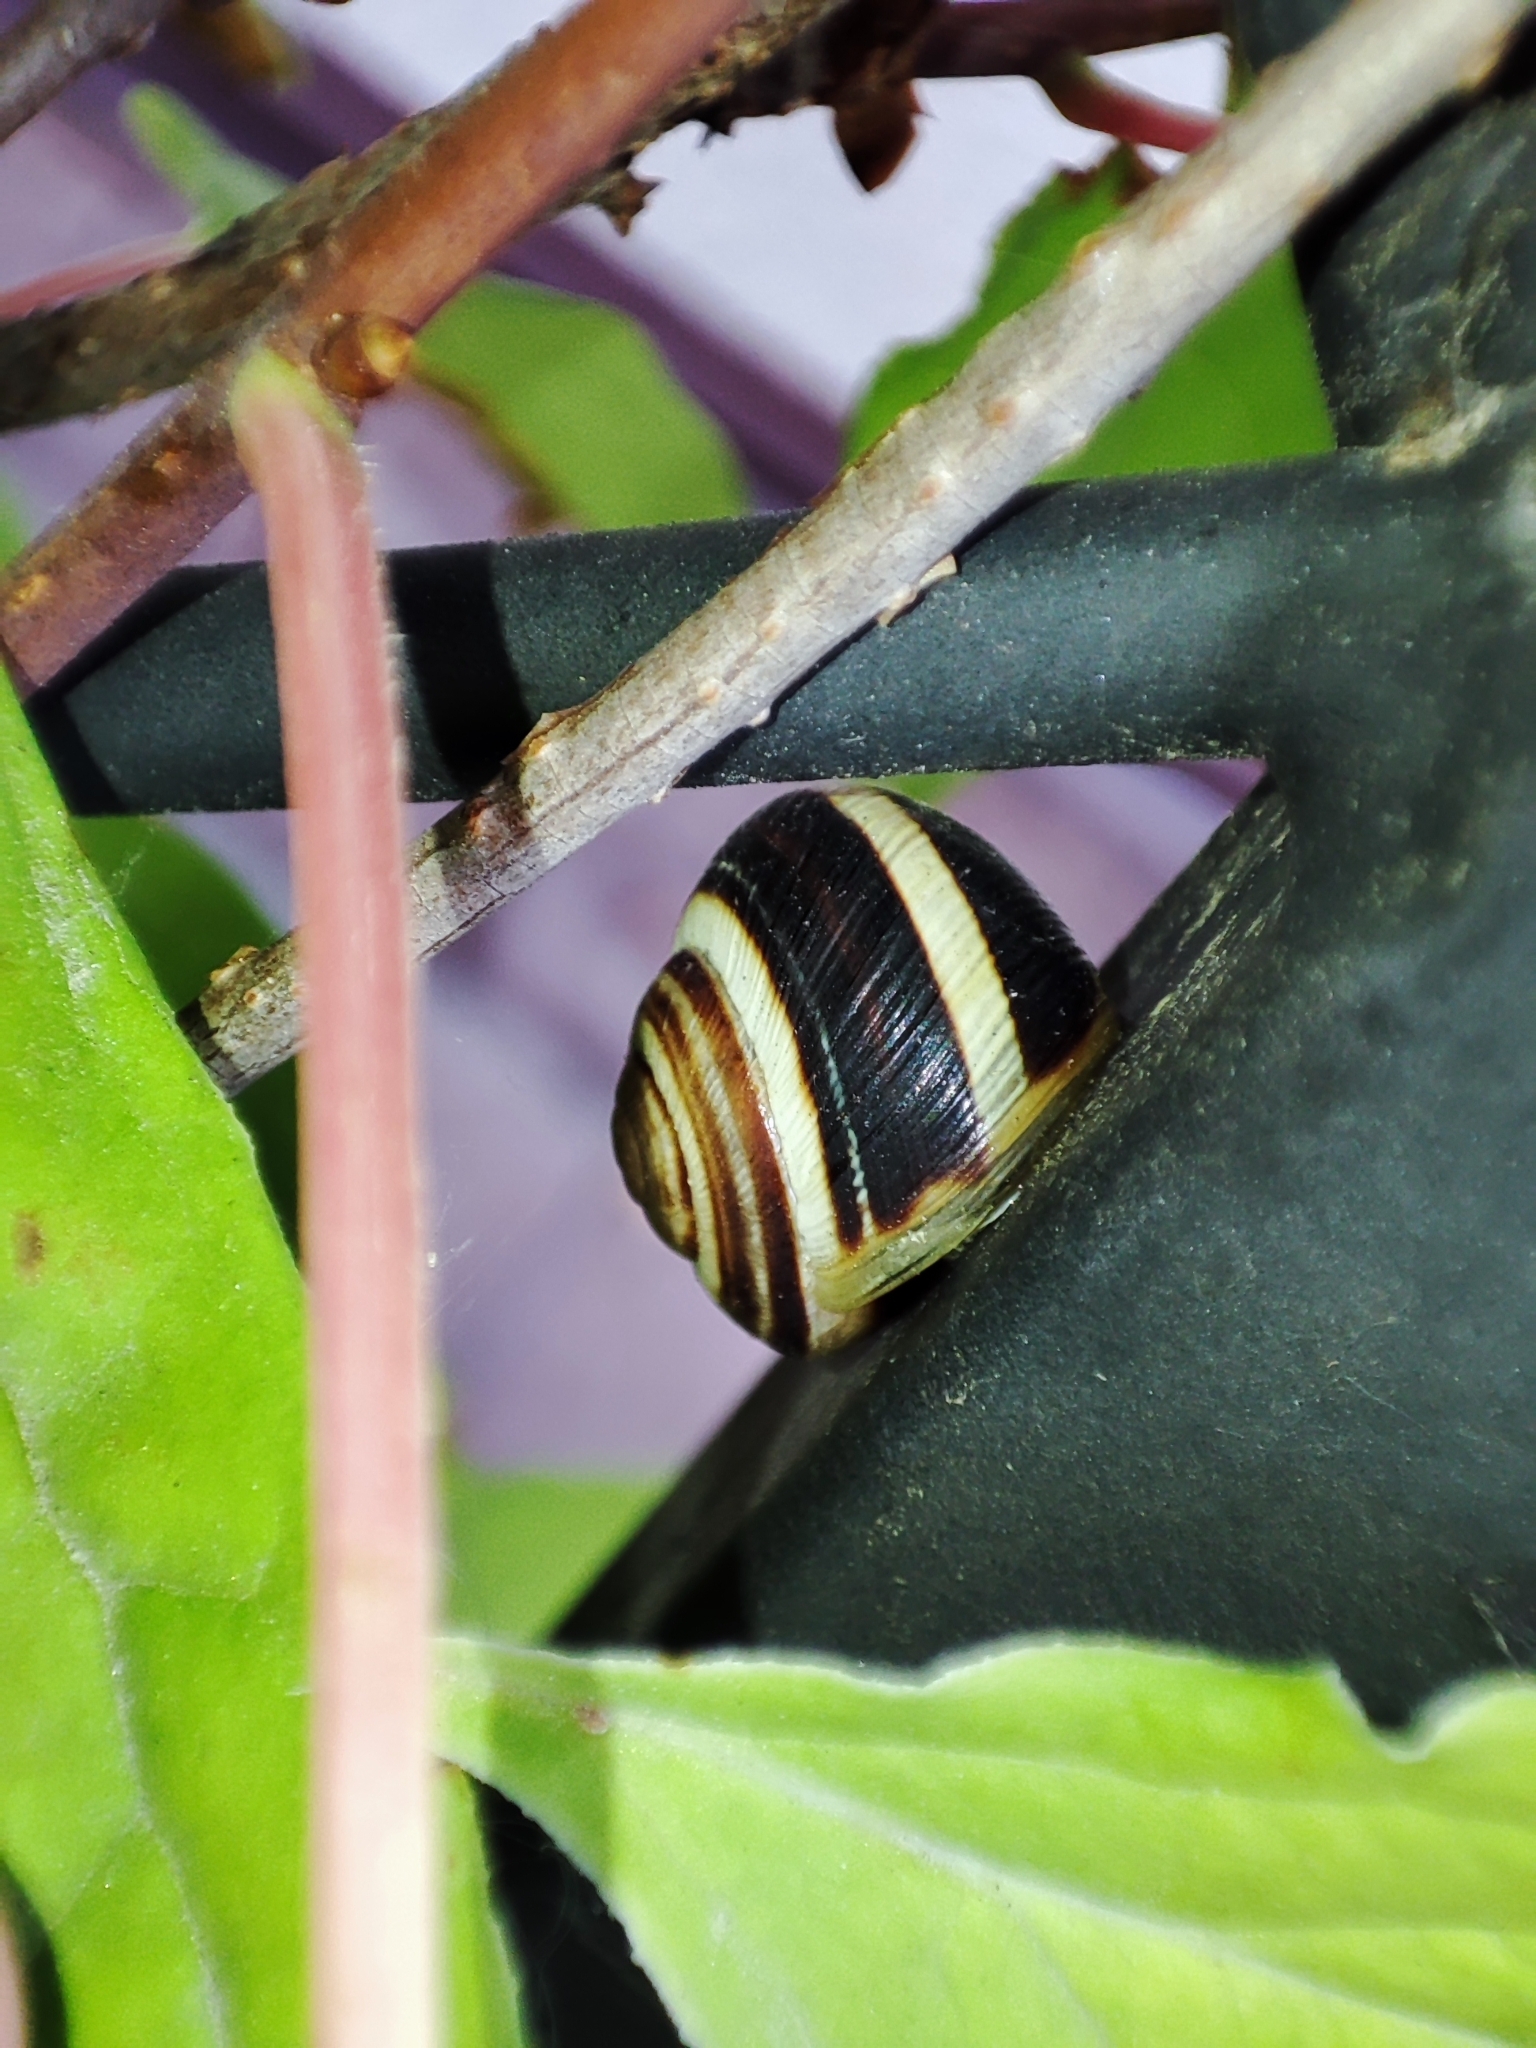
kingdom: Animalia
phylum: Mollusca
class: Gastropoda
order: Stylommatophora
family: Helicidae
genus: Caucasotachea
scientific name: Caucasotachea vindobonensis
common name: European helicid land snail
